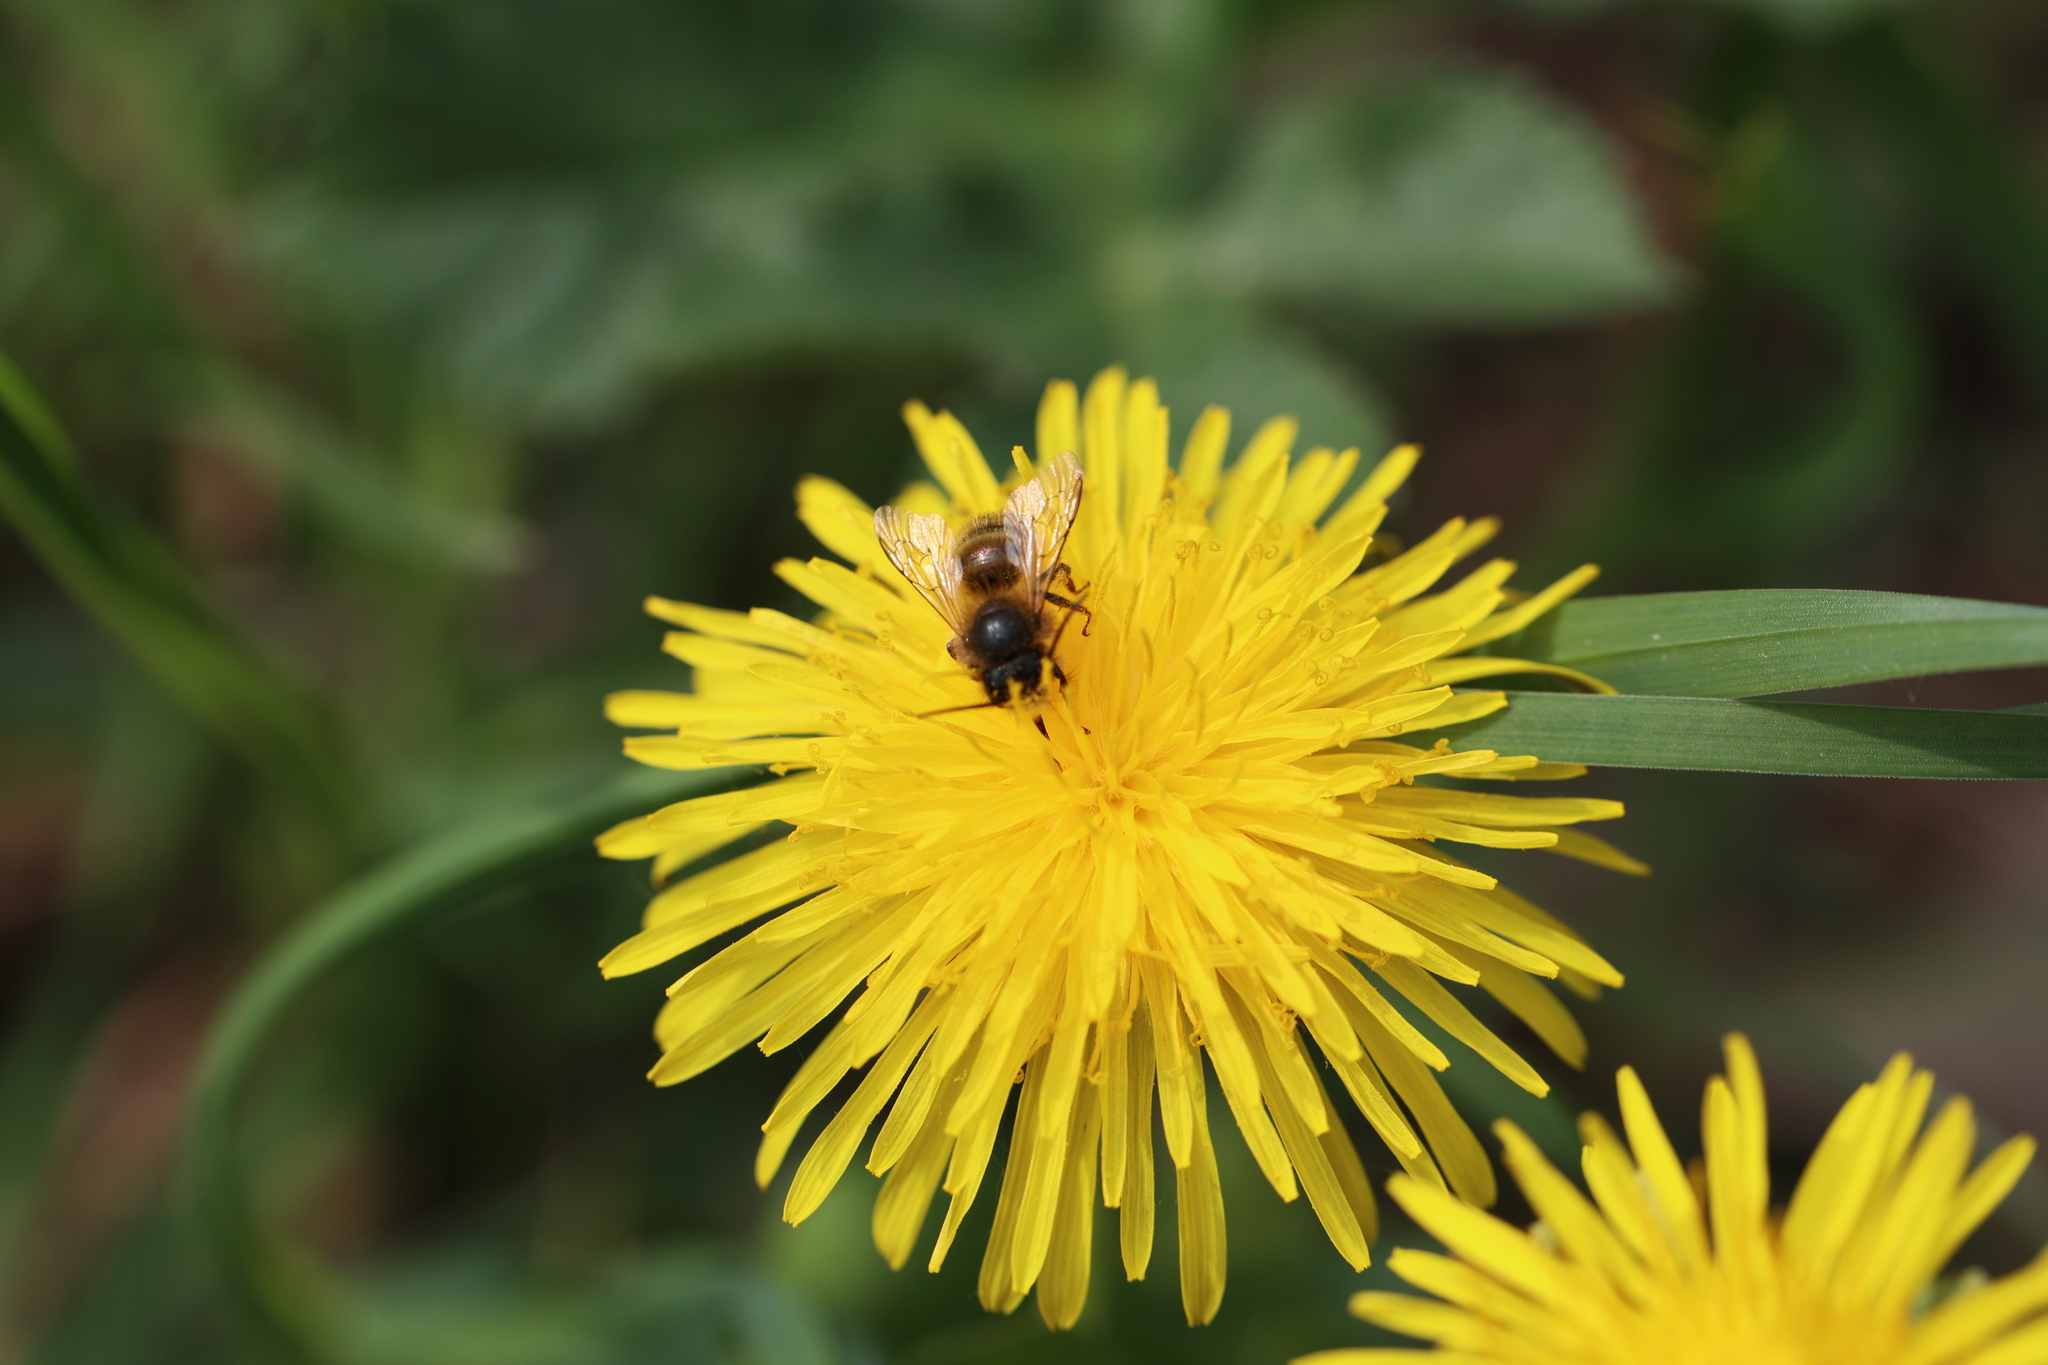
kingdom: Animalia
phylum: Arthropoda
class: Insecta
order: Hymenoptera
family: Megachilidae
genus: Osmia
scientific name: Osmia bicornis
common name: Red mason bee
